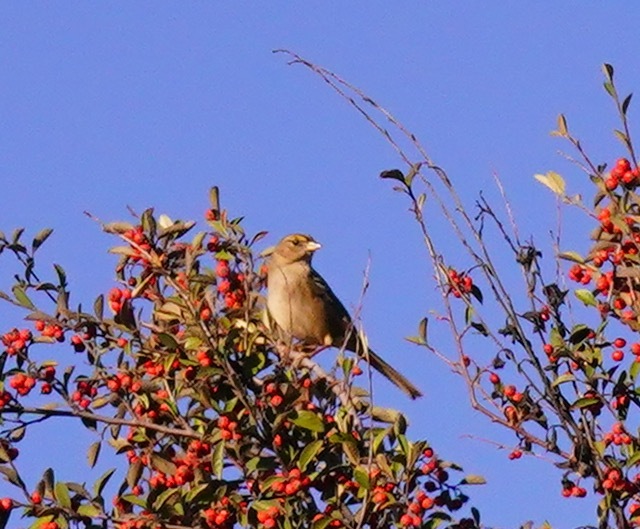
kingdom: Animalia
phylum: Chordata
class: Aves
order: Passeriformes
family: Passerellidae
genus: Zonotrichia
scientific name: Zonotrichia atricapilla
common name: Golden-crowned sparrow
